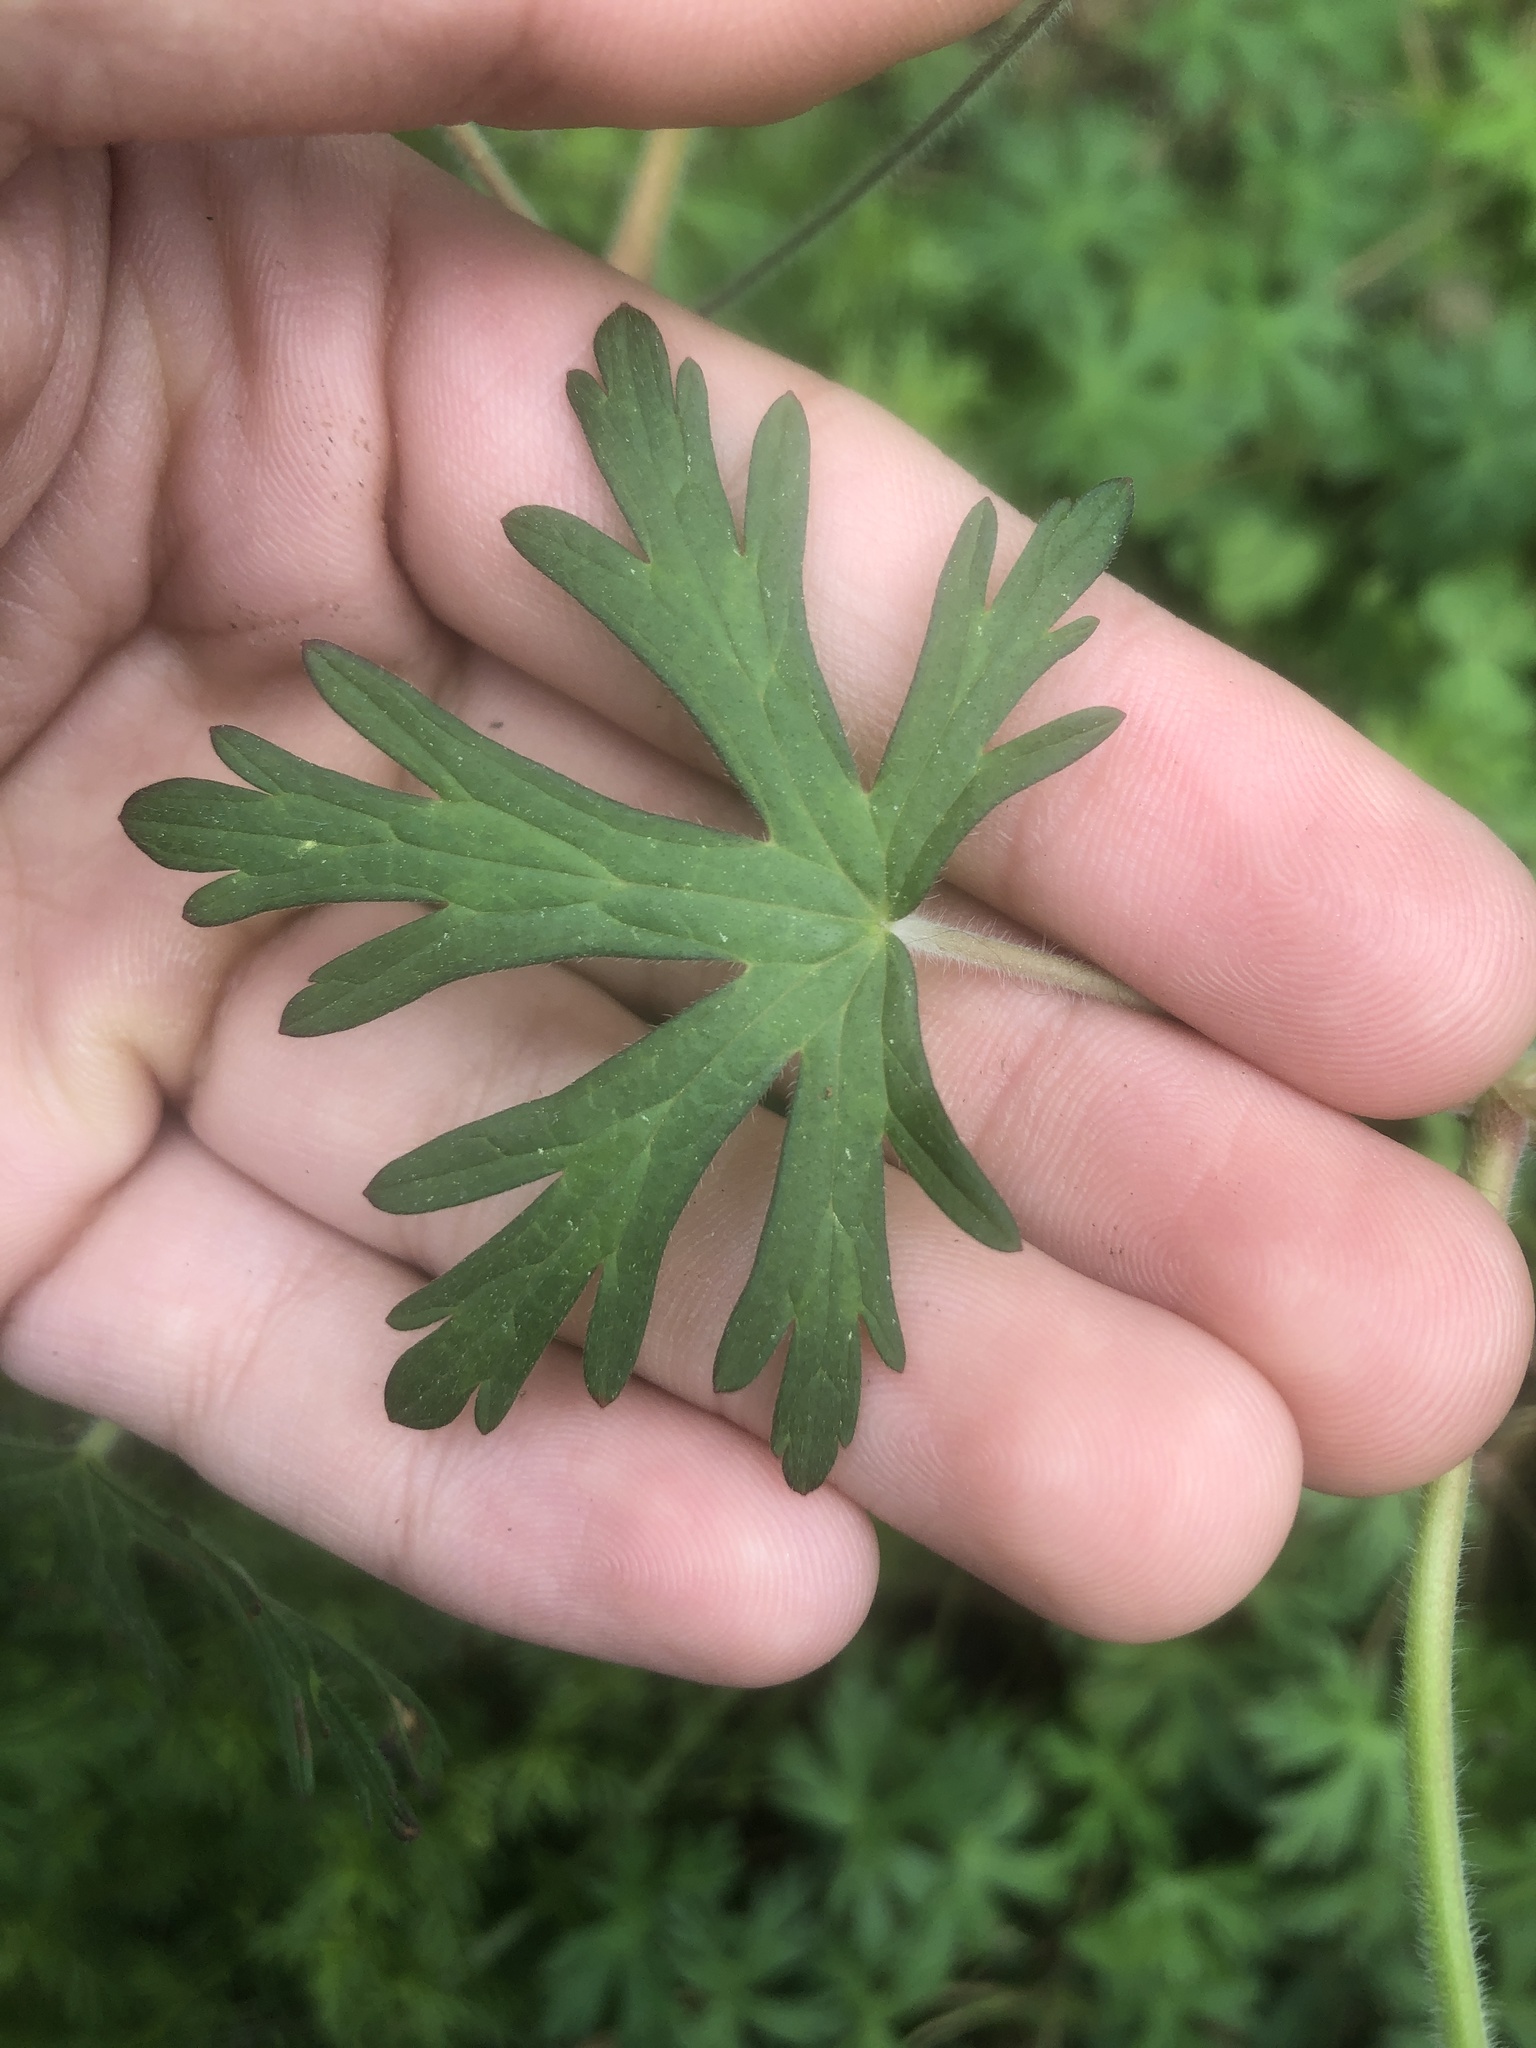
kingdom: Plantae
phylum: Tracheophyta
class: Magnoliopsida
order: Geraniales
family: Geraniaceae
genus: Geranium
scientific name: Geranium carolinianum
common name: Carolina crane's-bill
